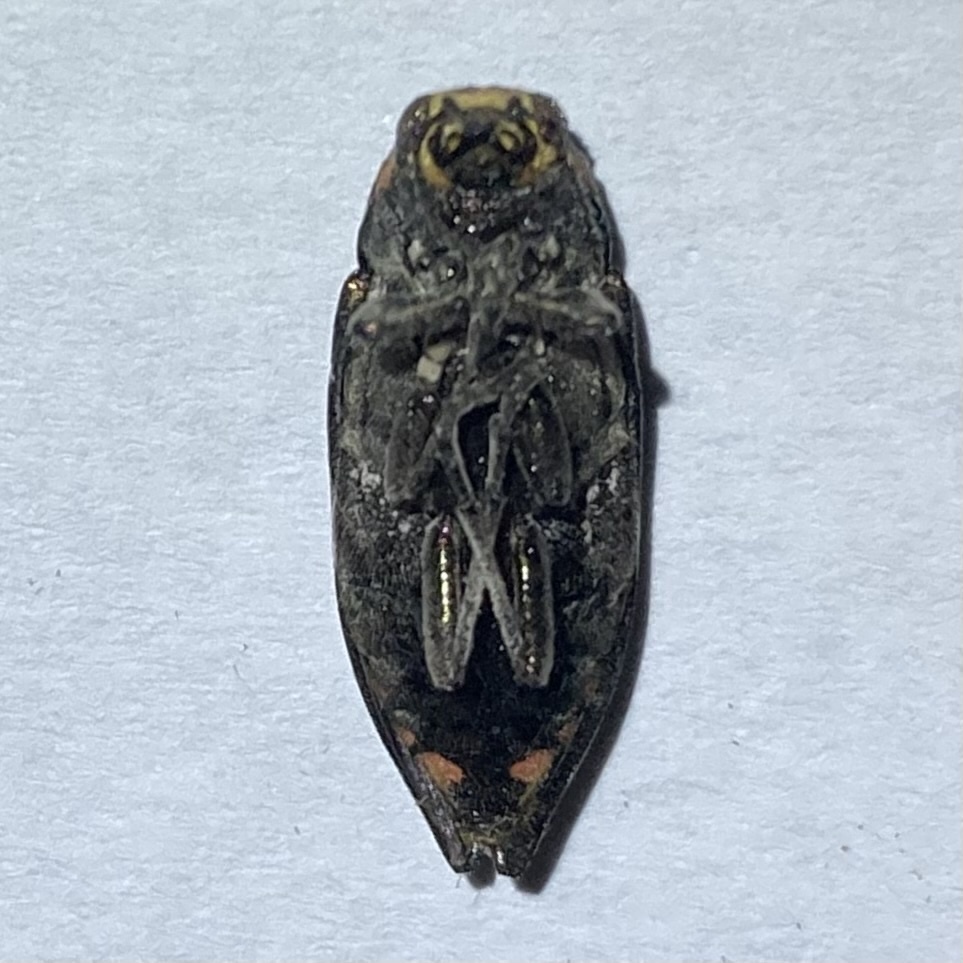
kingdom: Animalia
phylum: Arthropoda
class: Insecta
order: Coleoptera
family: Buprestidae
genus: Buprestis
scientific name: Buprestis maculativentris
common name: Spotted-belly buprestid beetle
